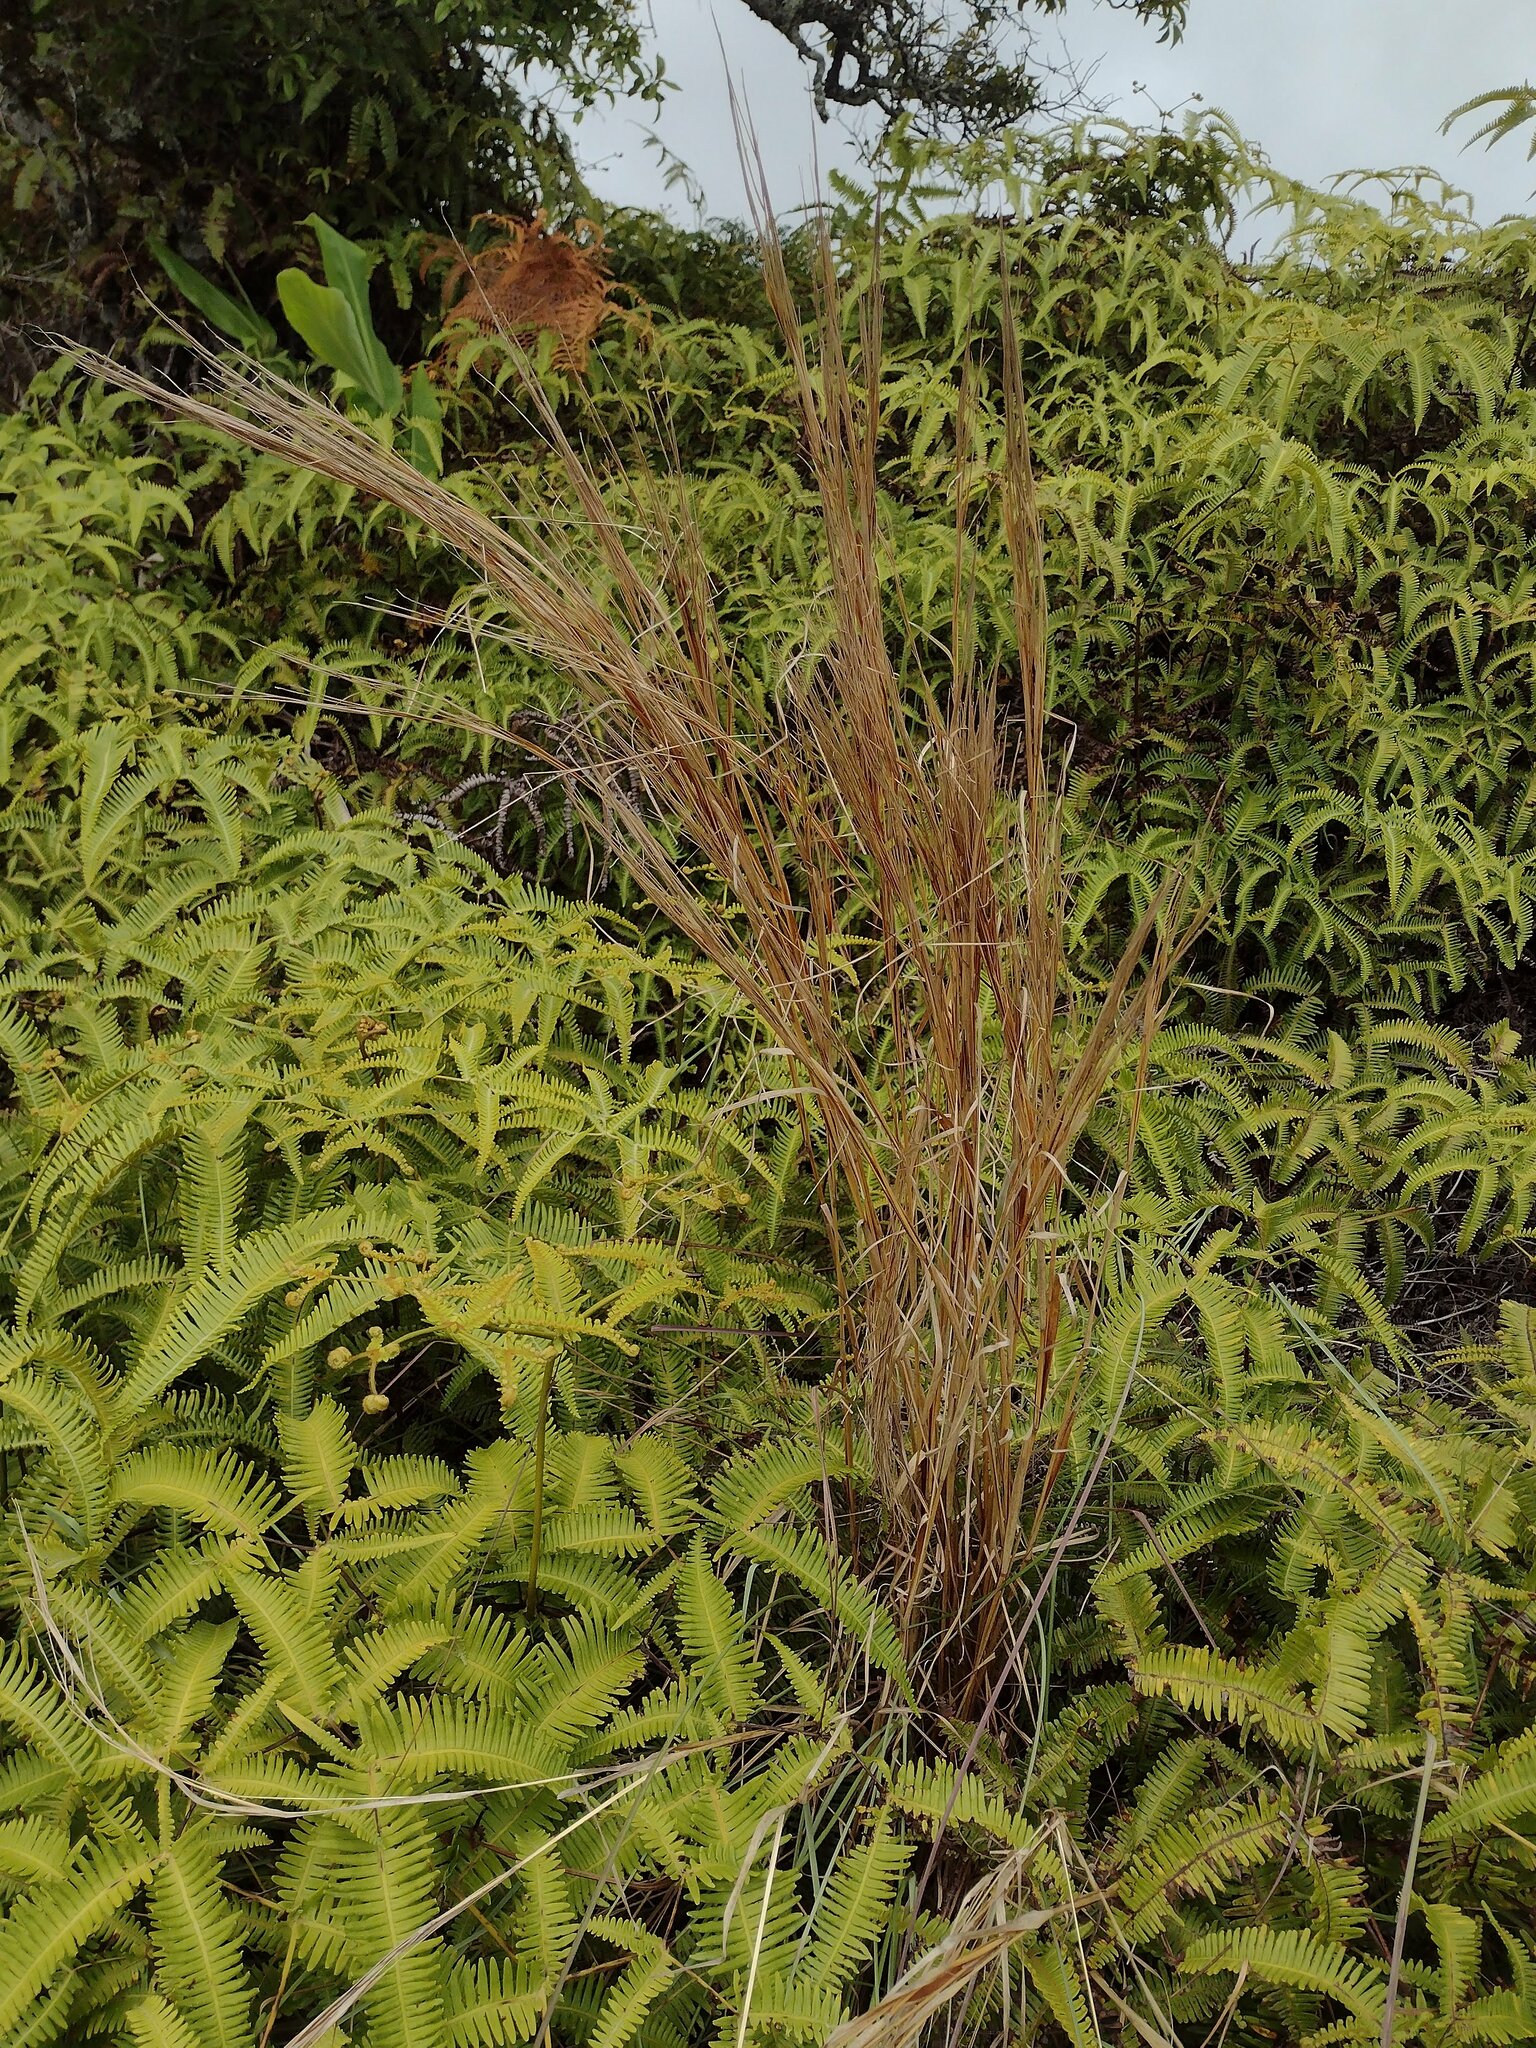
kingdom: Plantae
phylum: Tracheophyta
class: Liliopsida
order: Poales
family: Poaceae
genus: Andropogon
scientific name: Andropogon bicornis
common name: West indian foxtail grass
